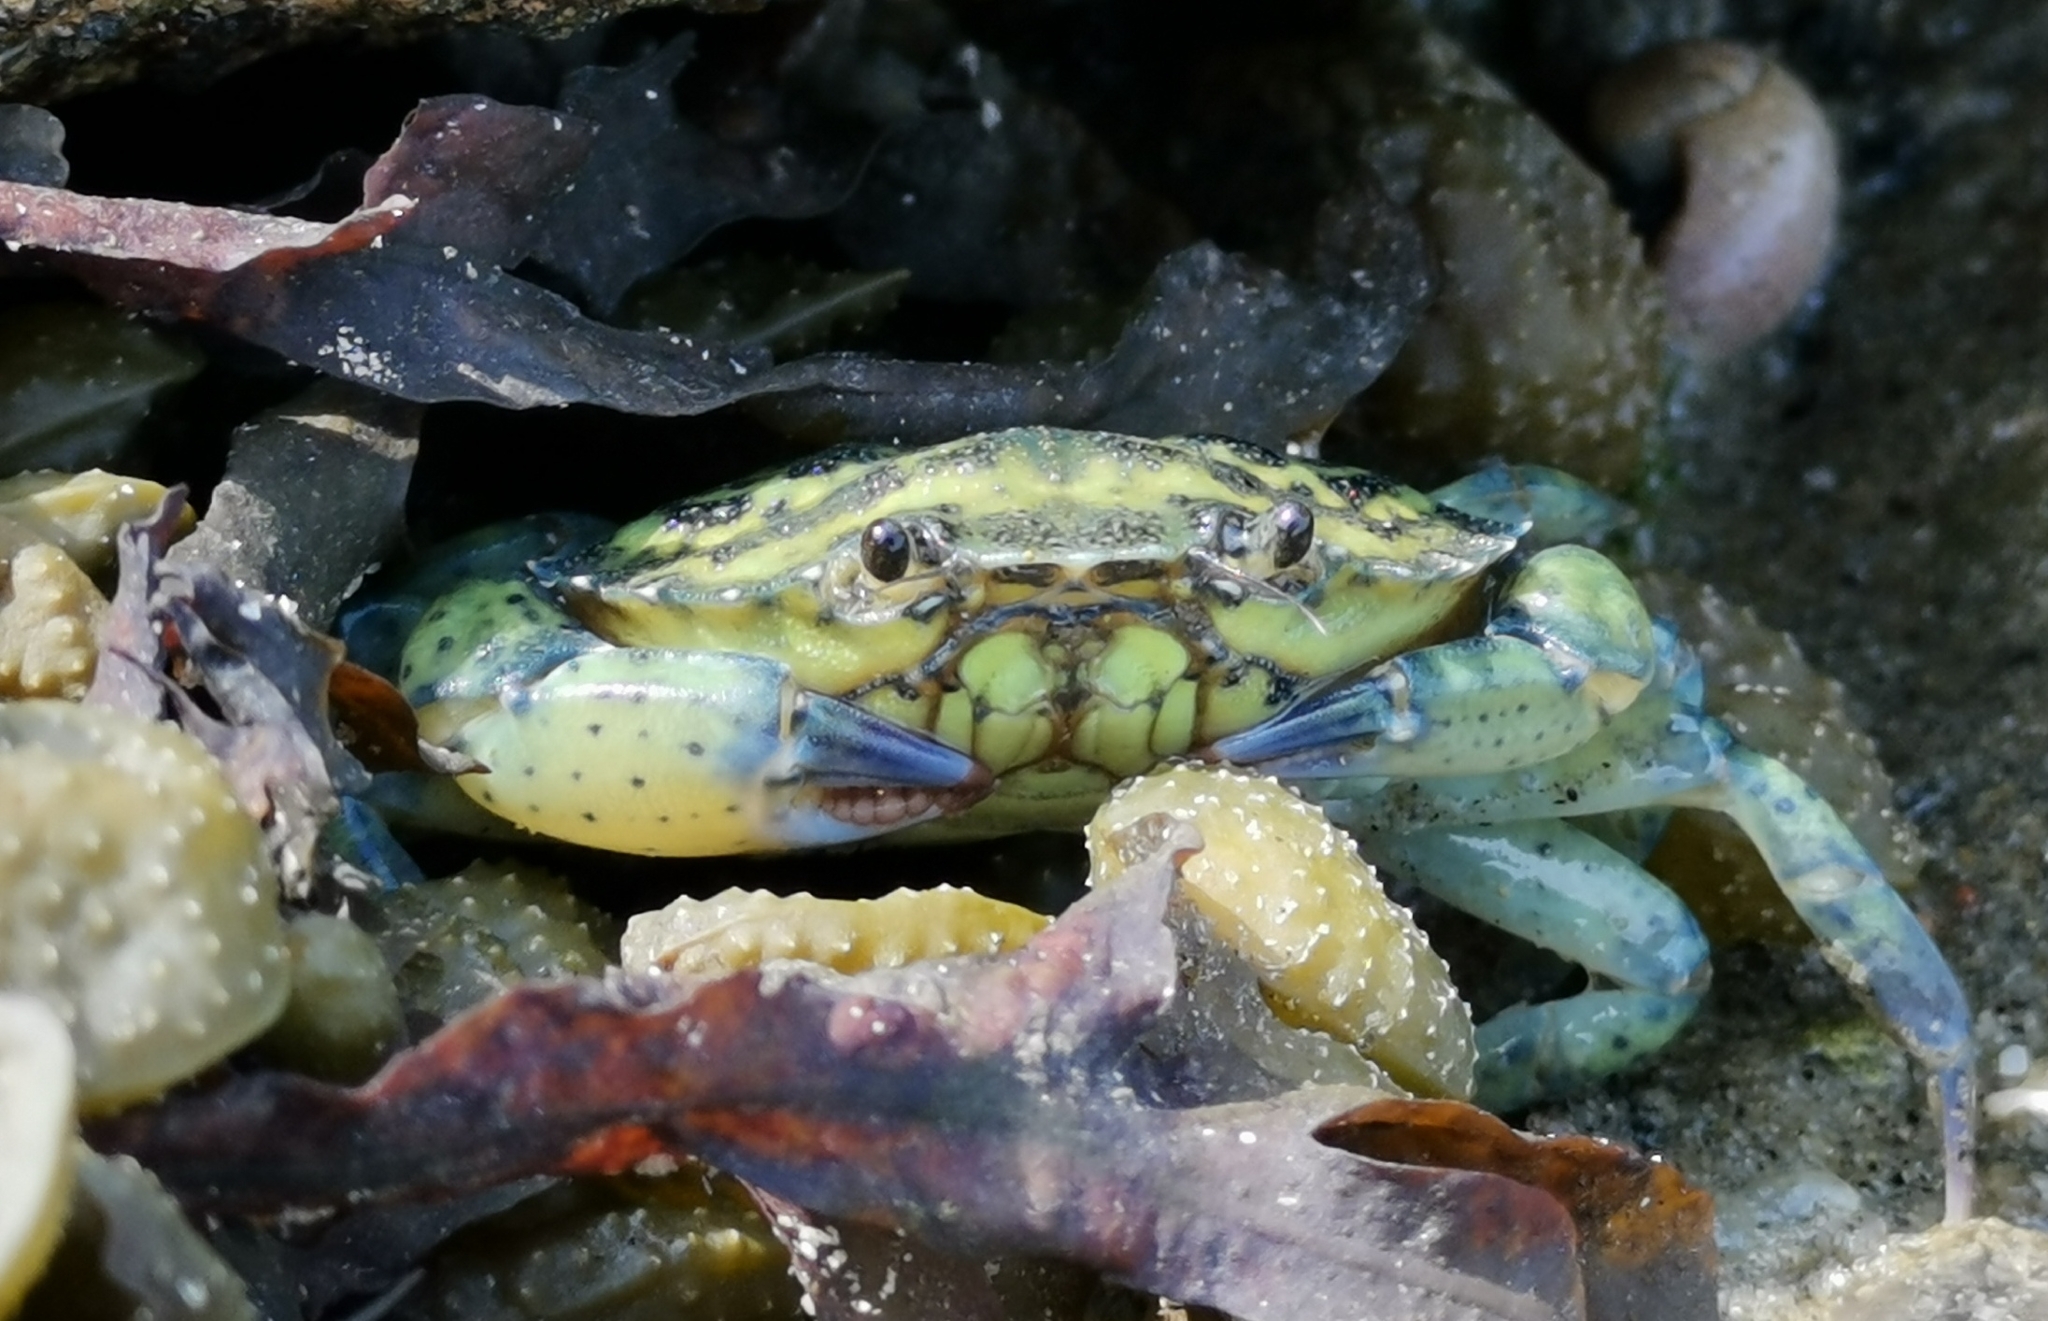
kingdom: Animalia
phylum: Arthropoda
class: Malacostraca
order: Decapoda
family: Carcinidae
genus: Carcinus
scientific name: Carcinus maenas
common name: European green crab
